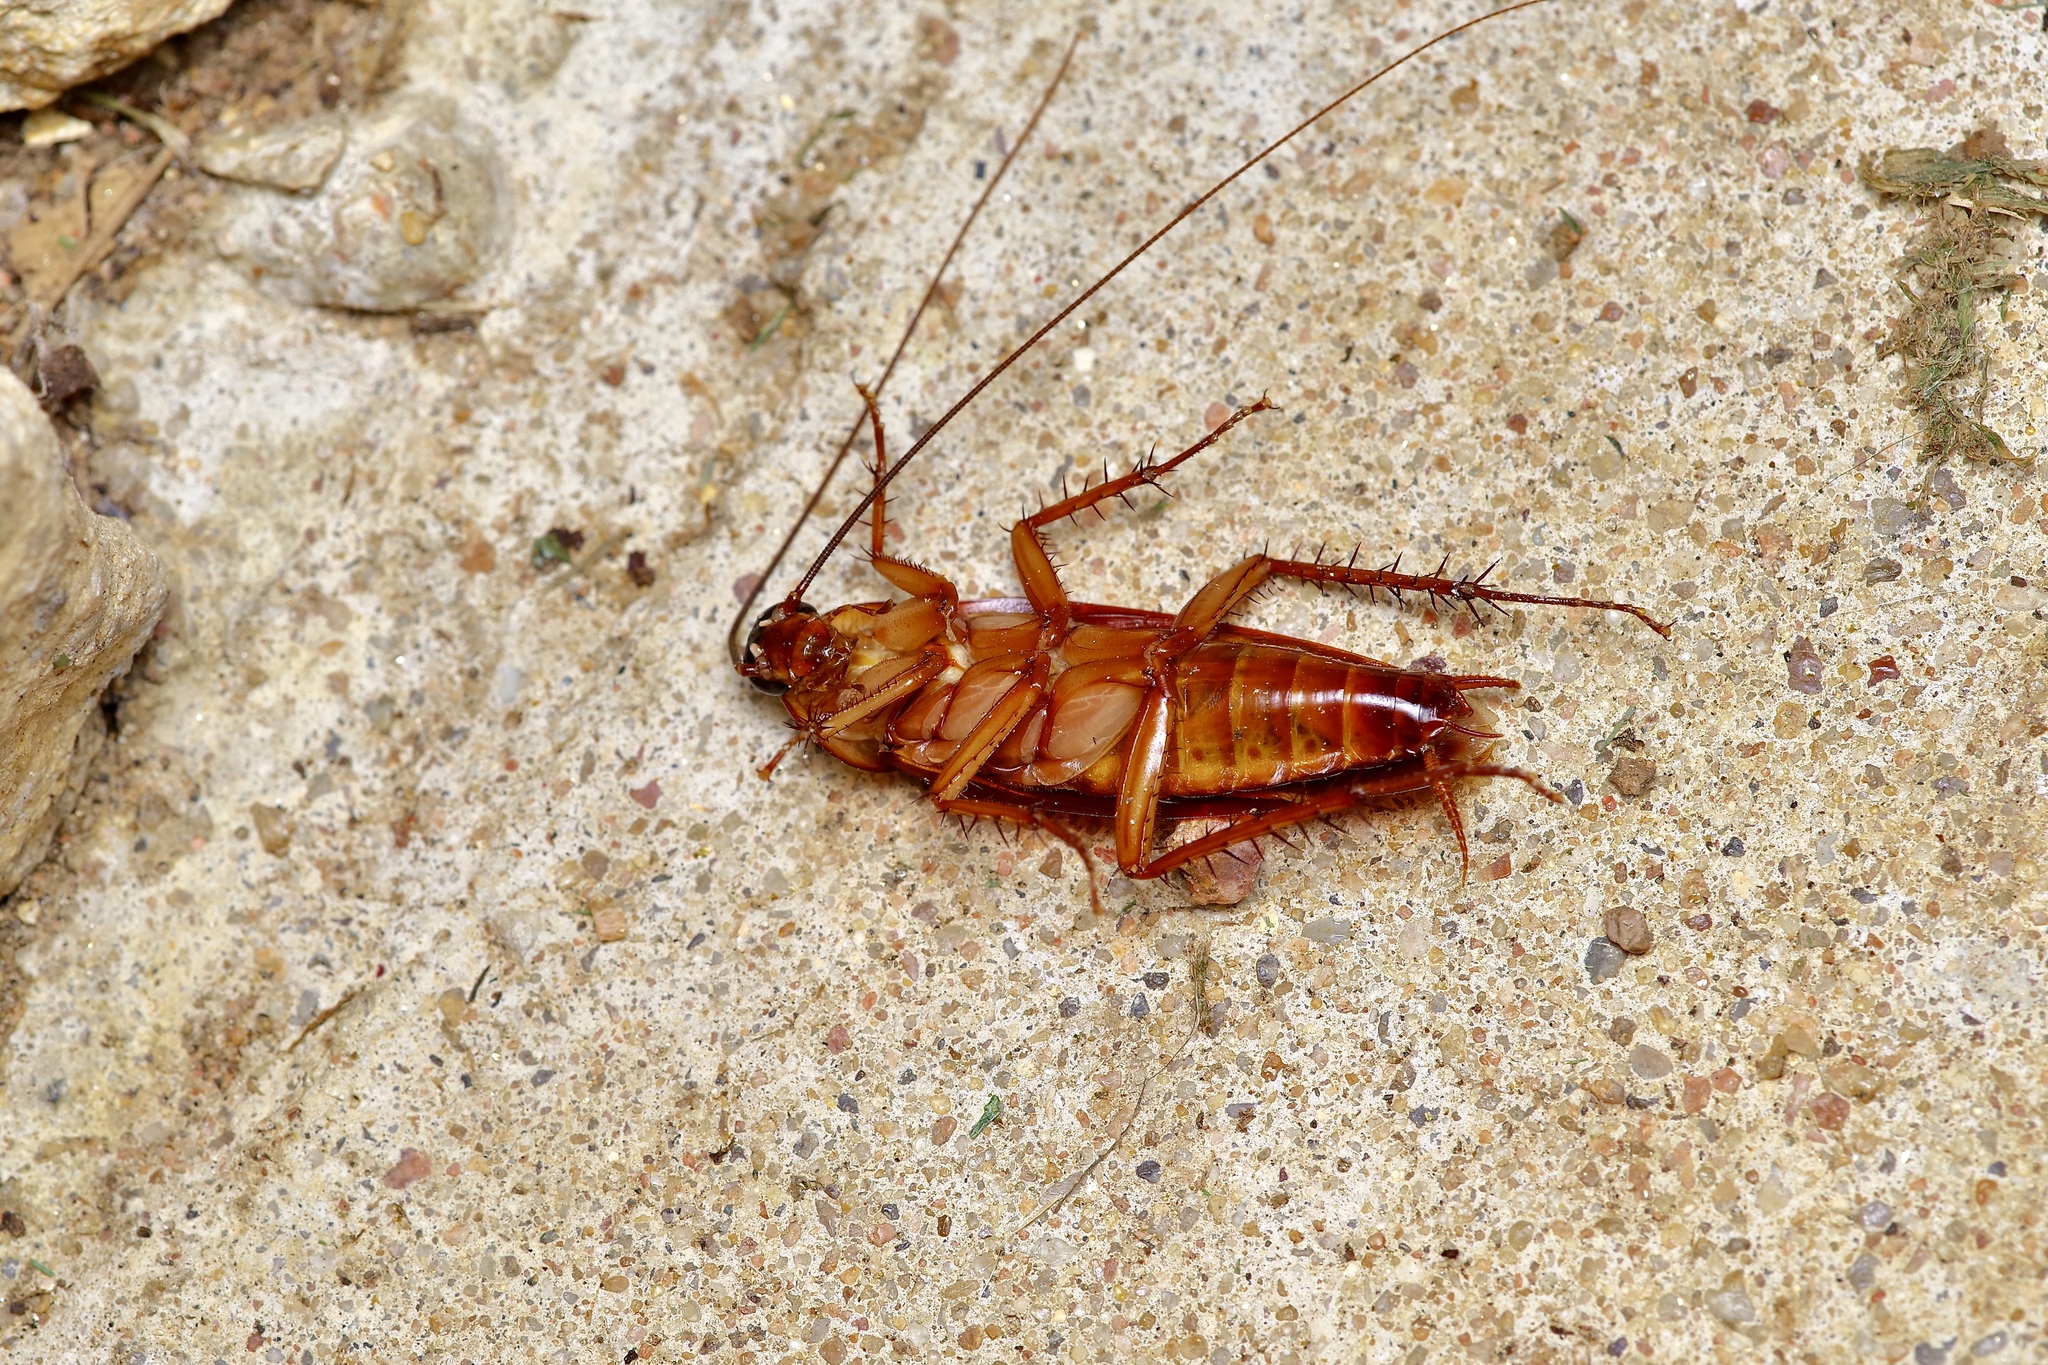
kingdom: Animalia
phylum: Arthropoda
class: Insecta
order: Blattodea
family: Blattidae
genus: Periplaneta
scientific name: Periplaneta americana
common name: American cockroach
